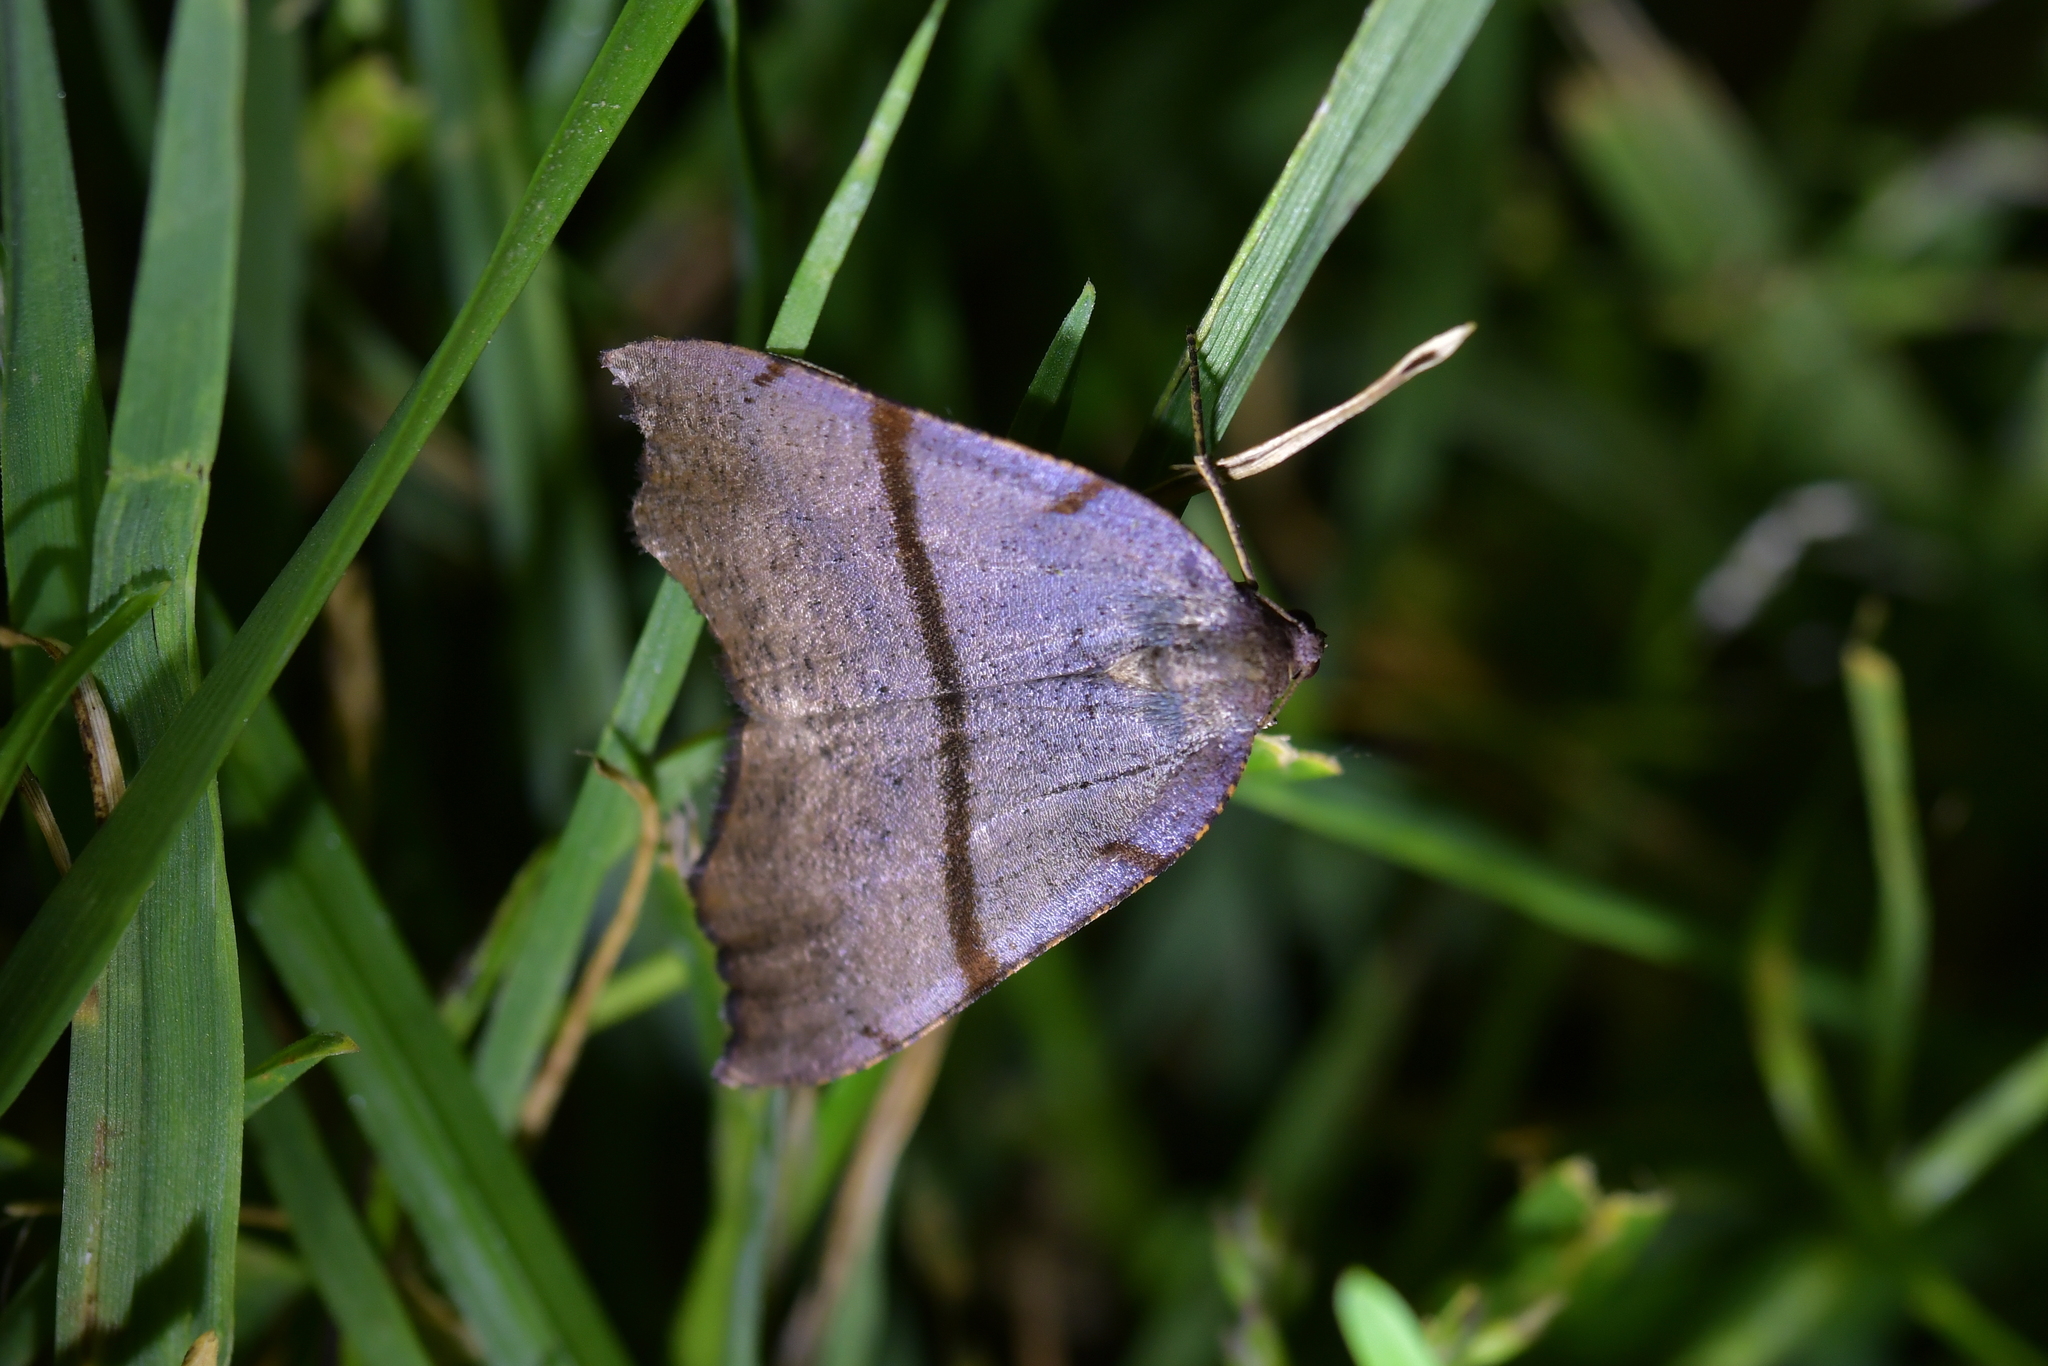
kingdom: Animalia
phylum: Arthropoda
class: Insecta
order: Lepidoptera
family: Geometridae
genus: Sestra
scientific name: Sestra flexata
